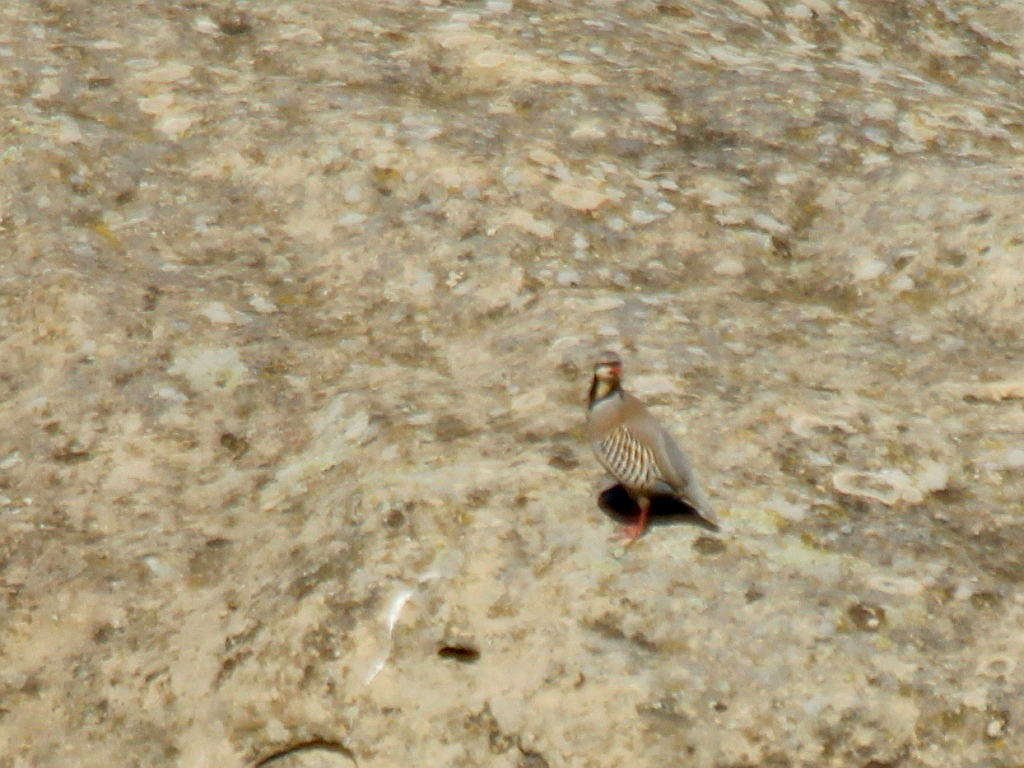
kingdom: Animalia
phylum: Chordata
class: Aves
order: Galliformes
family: Phasianidae
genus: Alectoris
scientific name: Alectoris chukar
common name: Chukar
